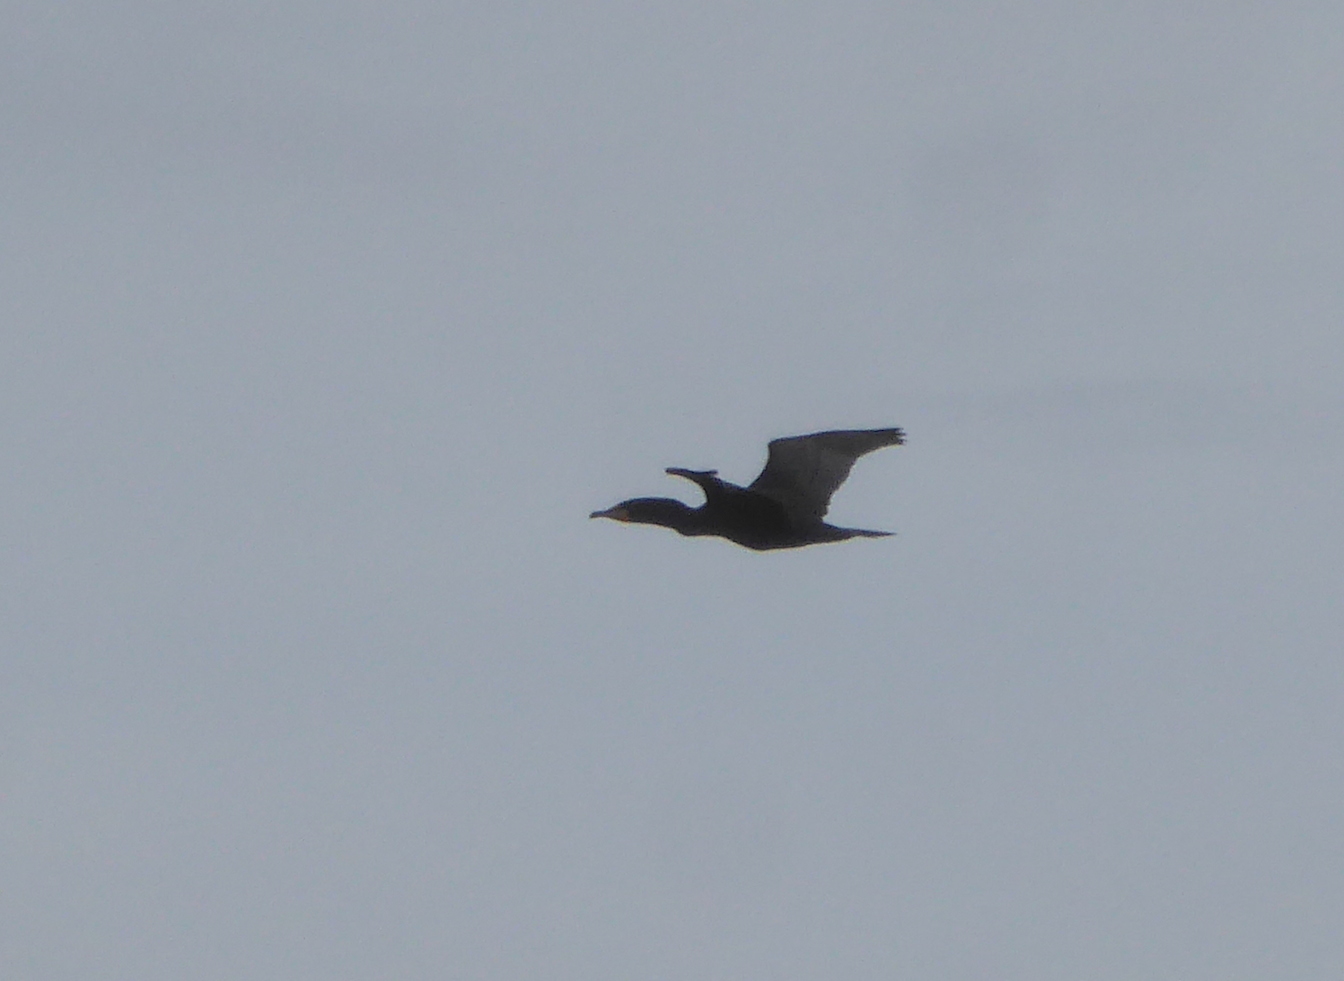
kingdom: Animalia
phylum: Chordata
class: Aves
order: Suliformes
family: Phalacrocoracidae
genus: Phalacrocorax
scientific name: Phalacrocorax auritus
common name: Double-crested cormorant
